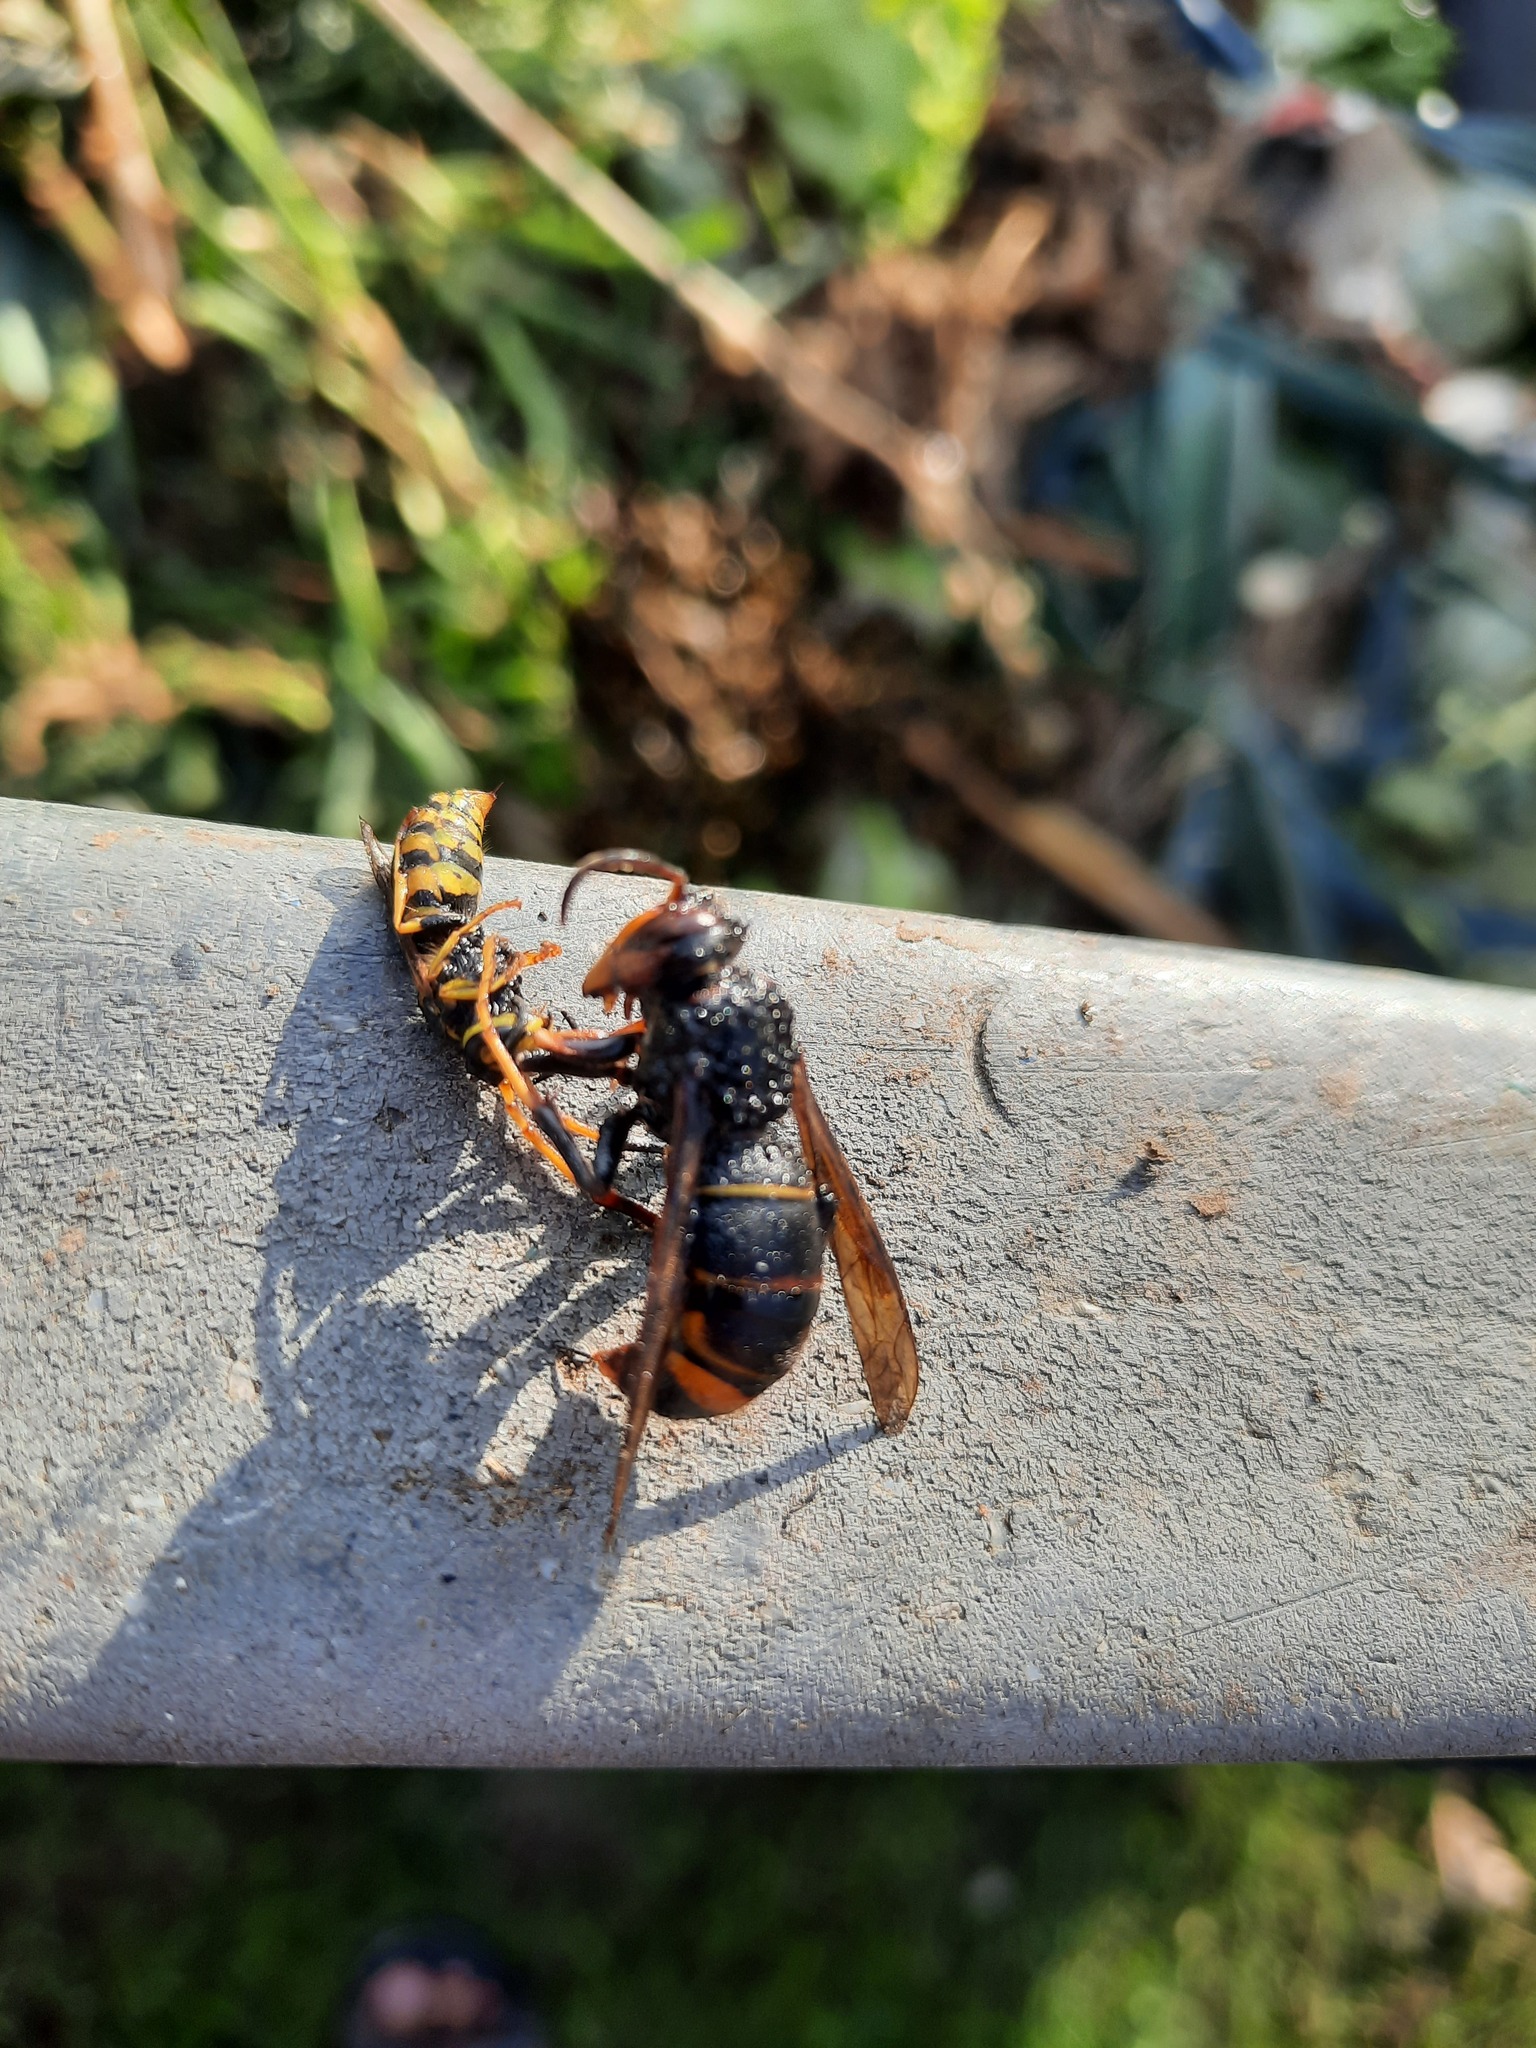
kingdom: Animalia
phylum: Arthropoda
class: Insecta
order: Hymenoptera
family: Vespidae
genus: Vespa
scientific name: Vespa velutina
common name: Asian hornet
